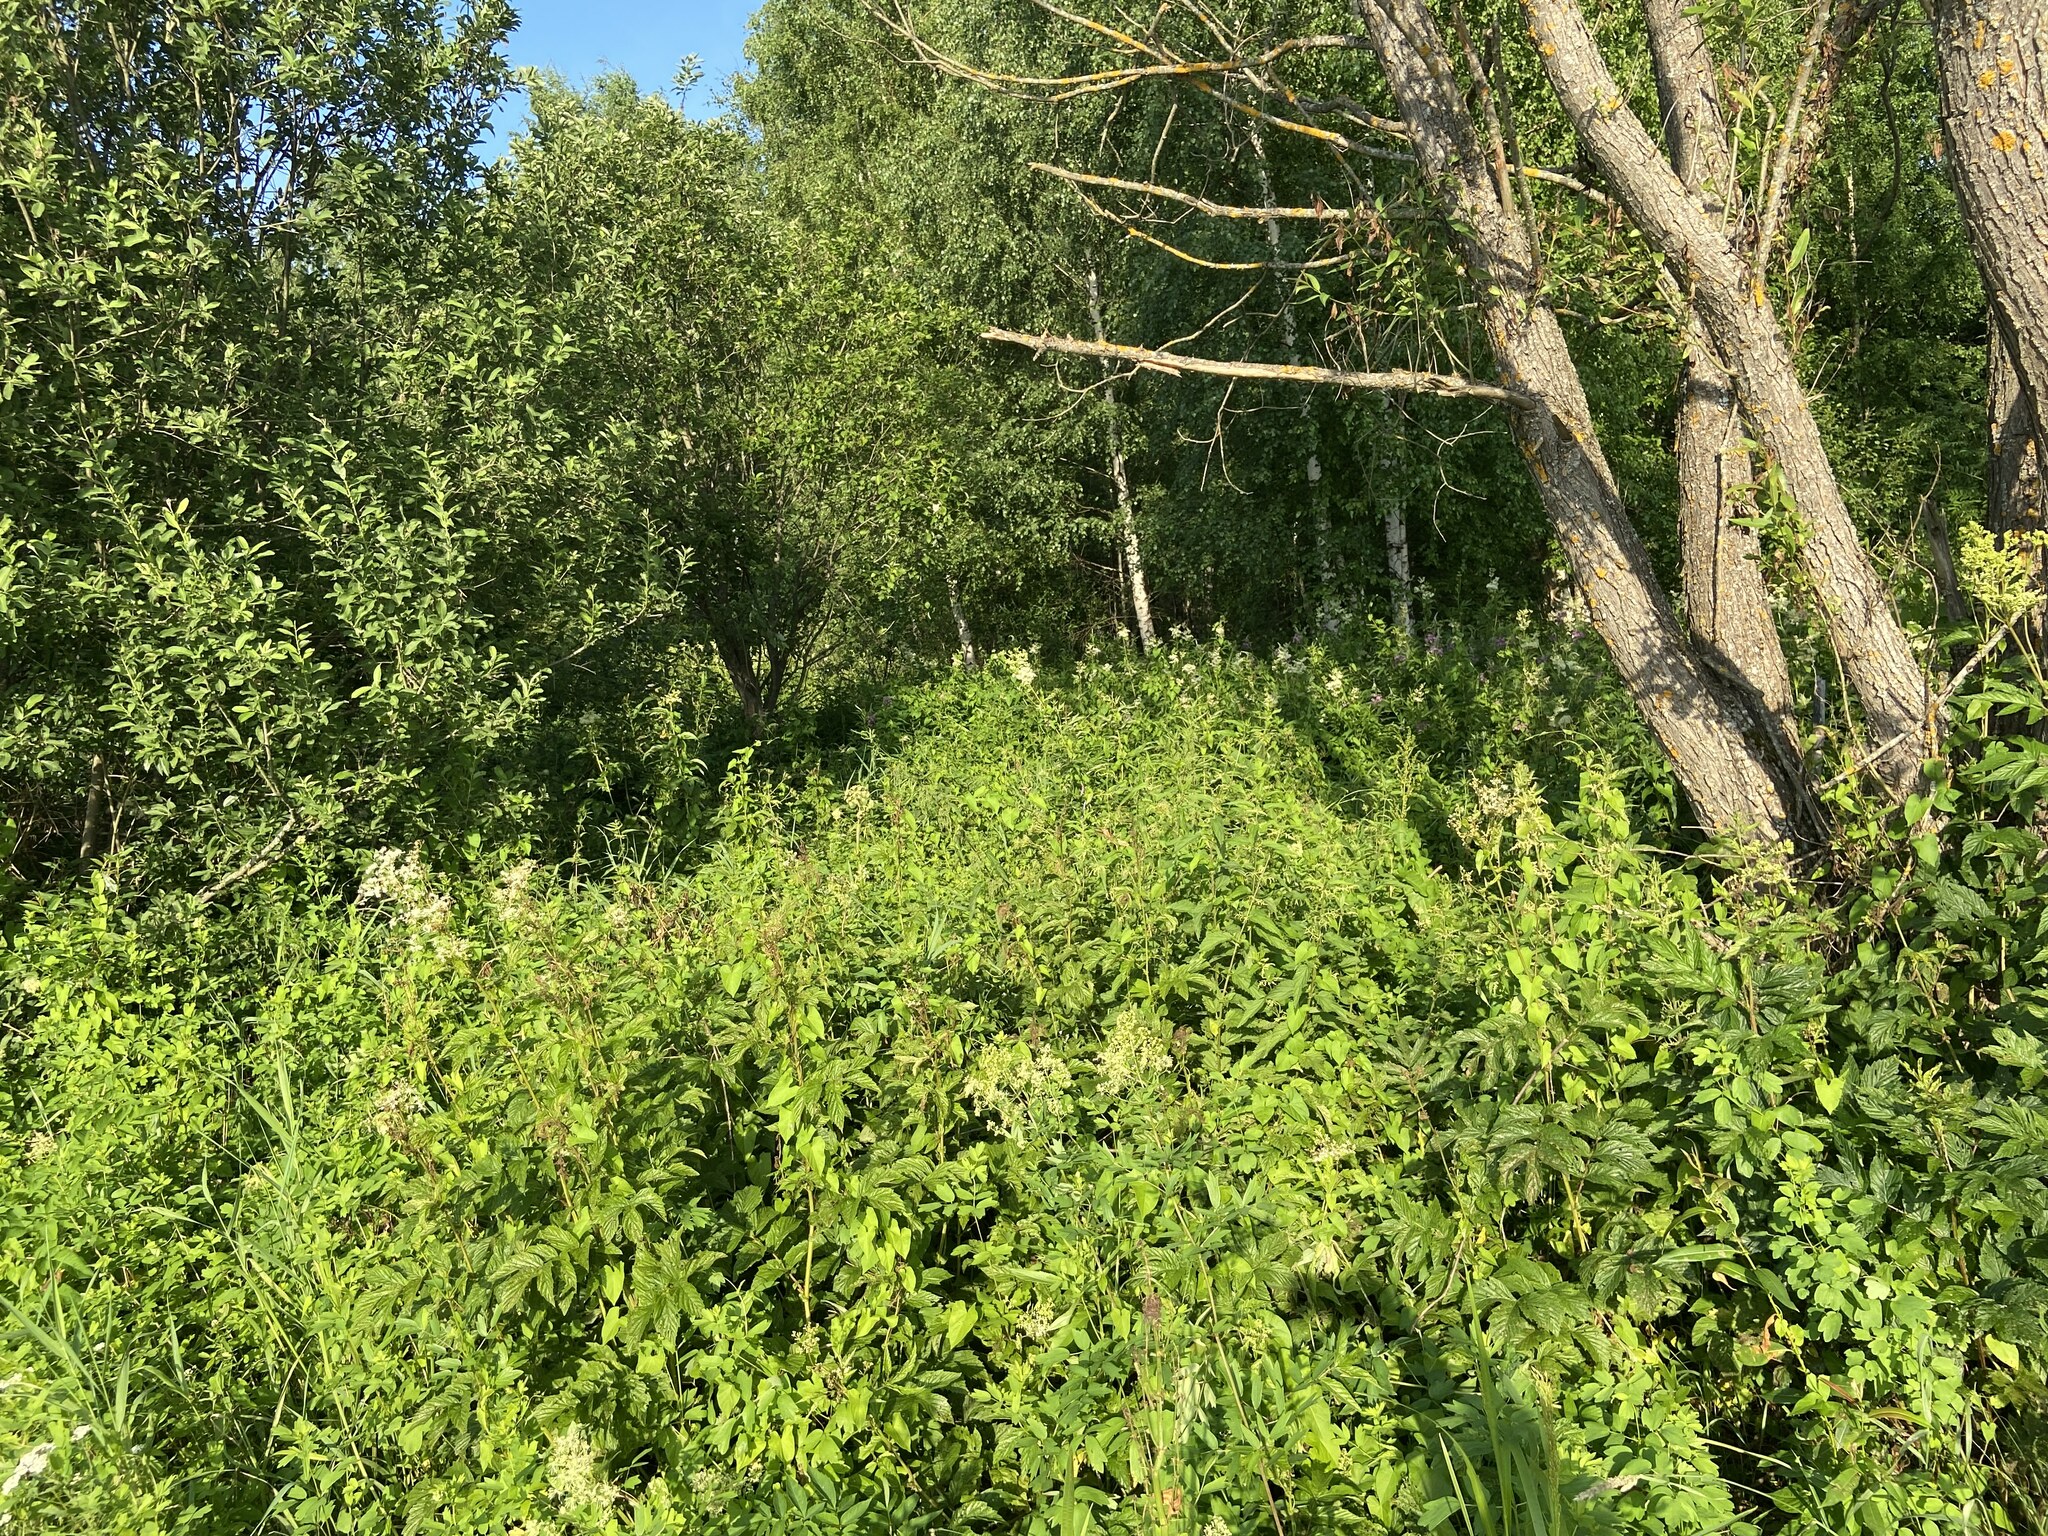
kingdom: Plantae
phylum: Tracheophyta
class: Magnoliopsida
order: Rosales
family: Rosaceae
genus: Filipendula
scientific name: Filipendula ulmaria
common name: Meadowsweet
